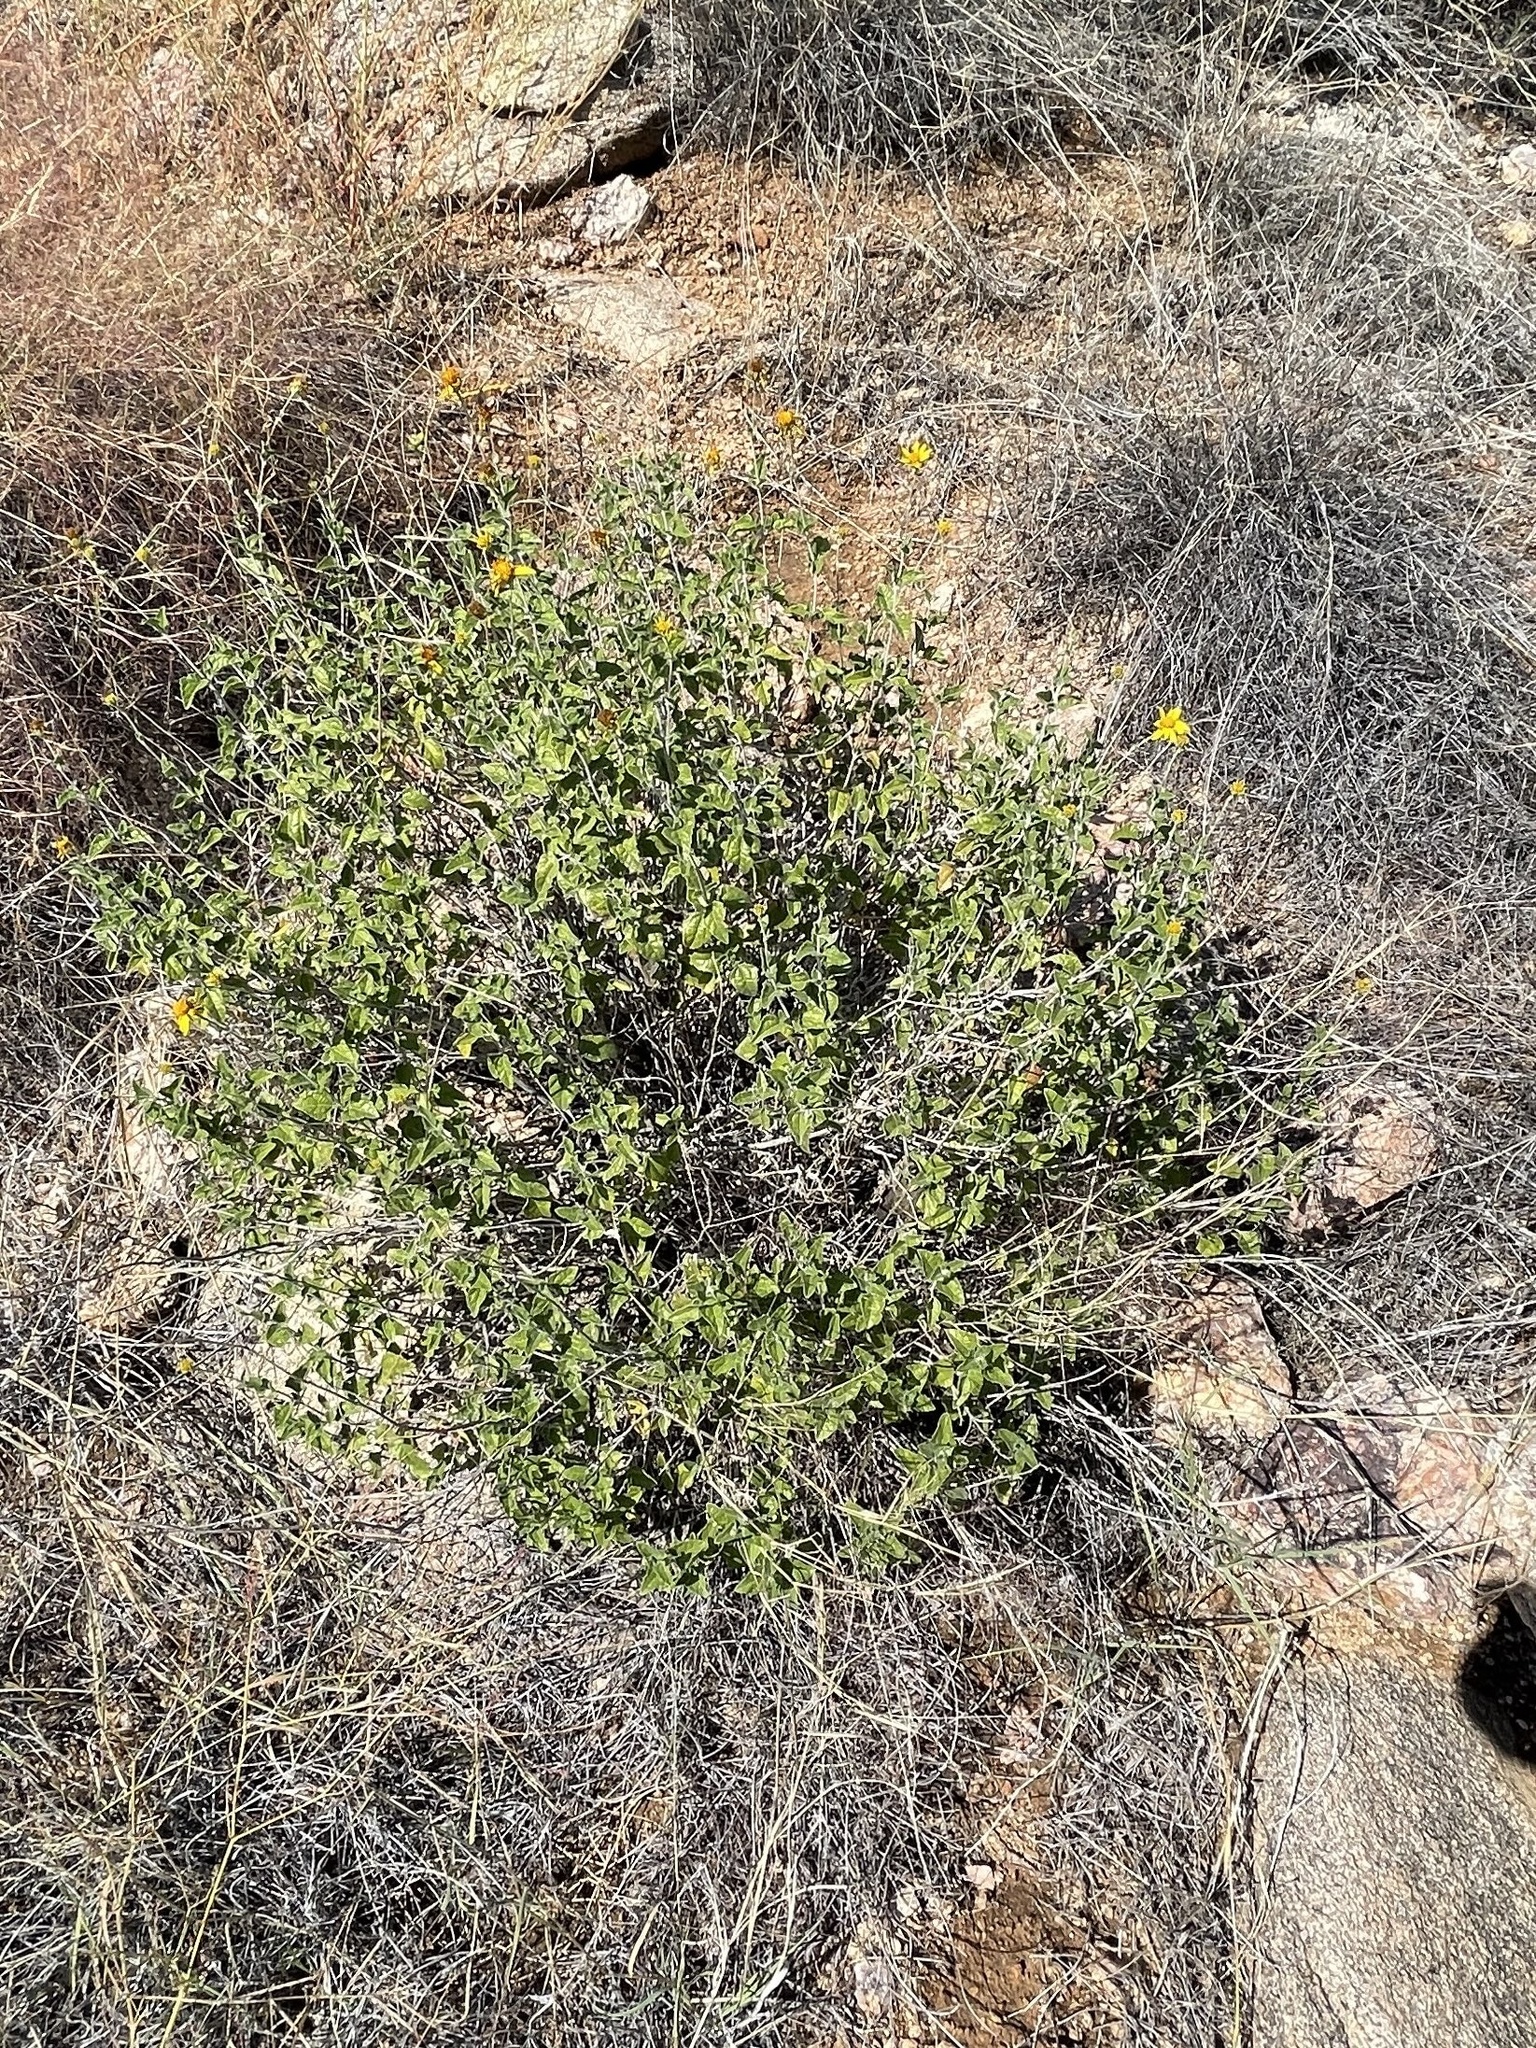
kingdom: Plantae
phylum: Tracheophyta
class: Magnoliopsida
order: Asterales
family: Asteraceae
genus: Bahiopsis
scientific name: Bahiopsis parishii
